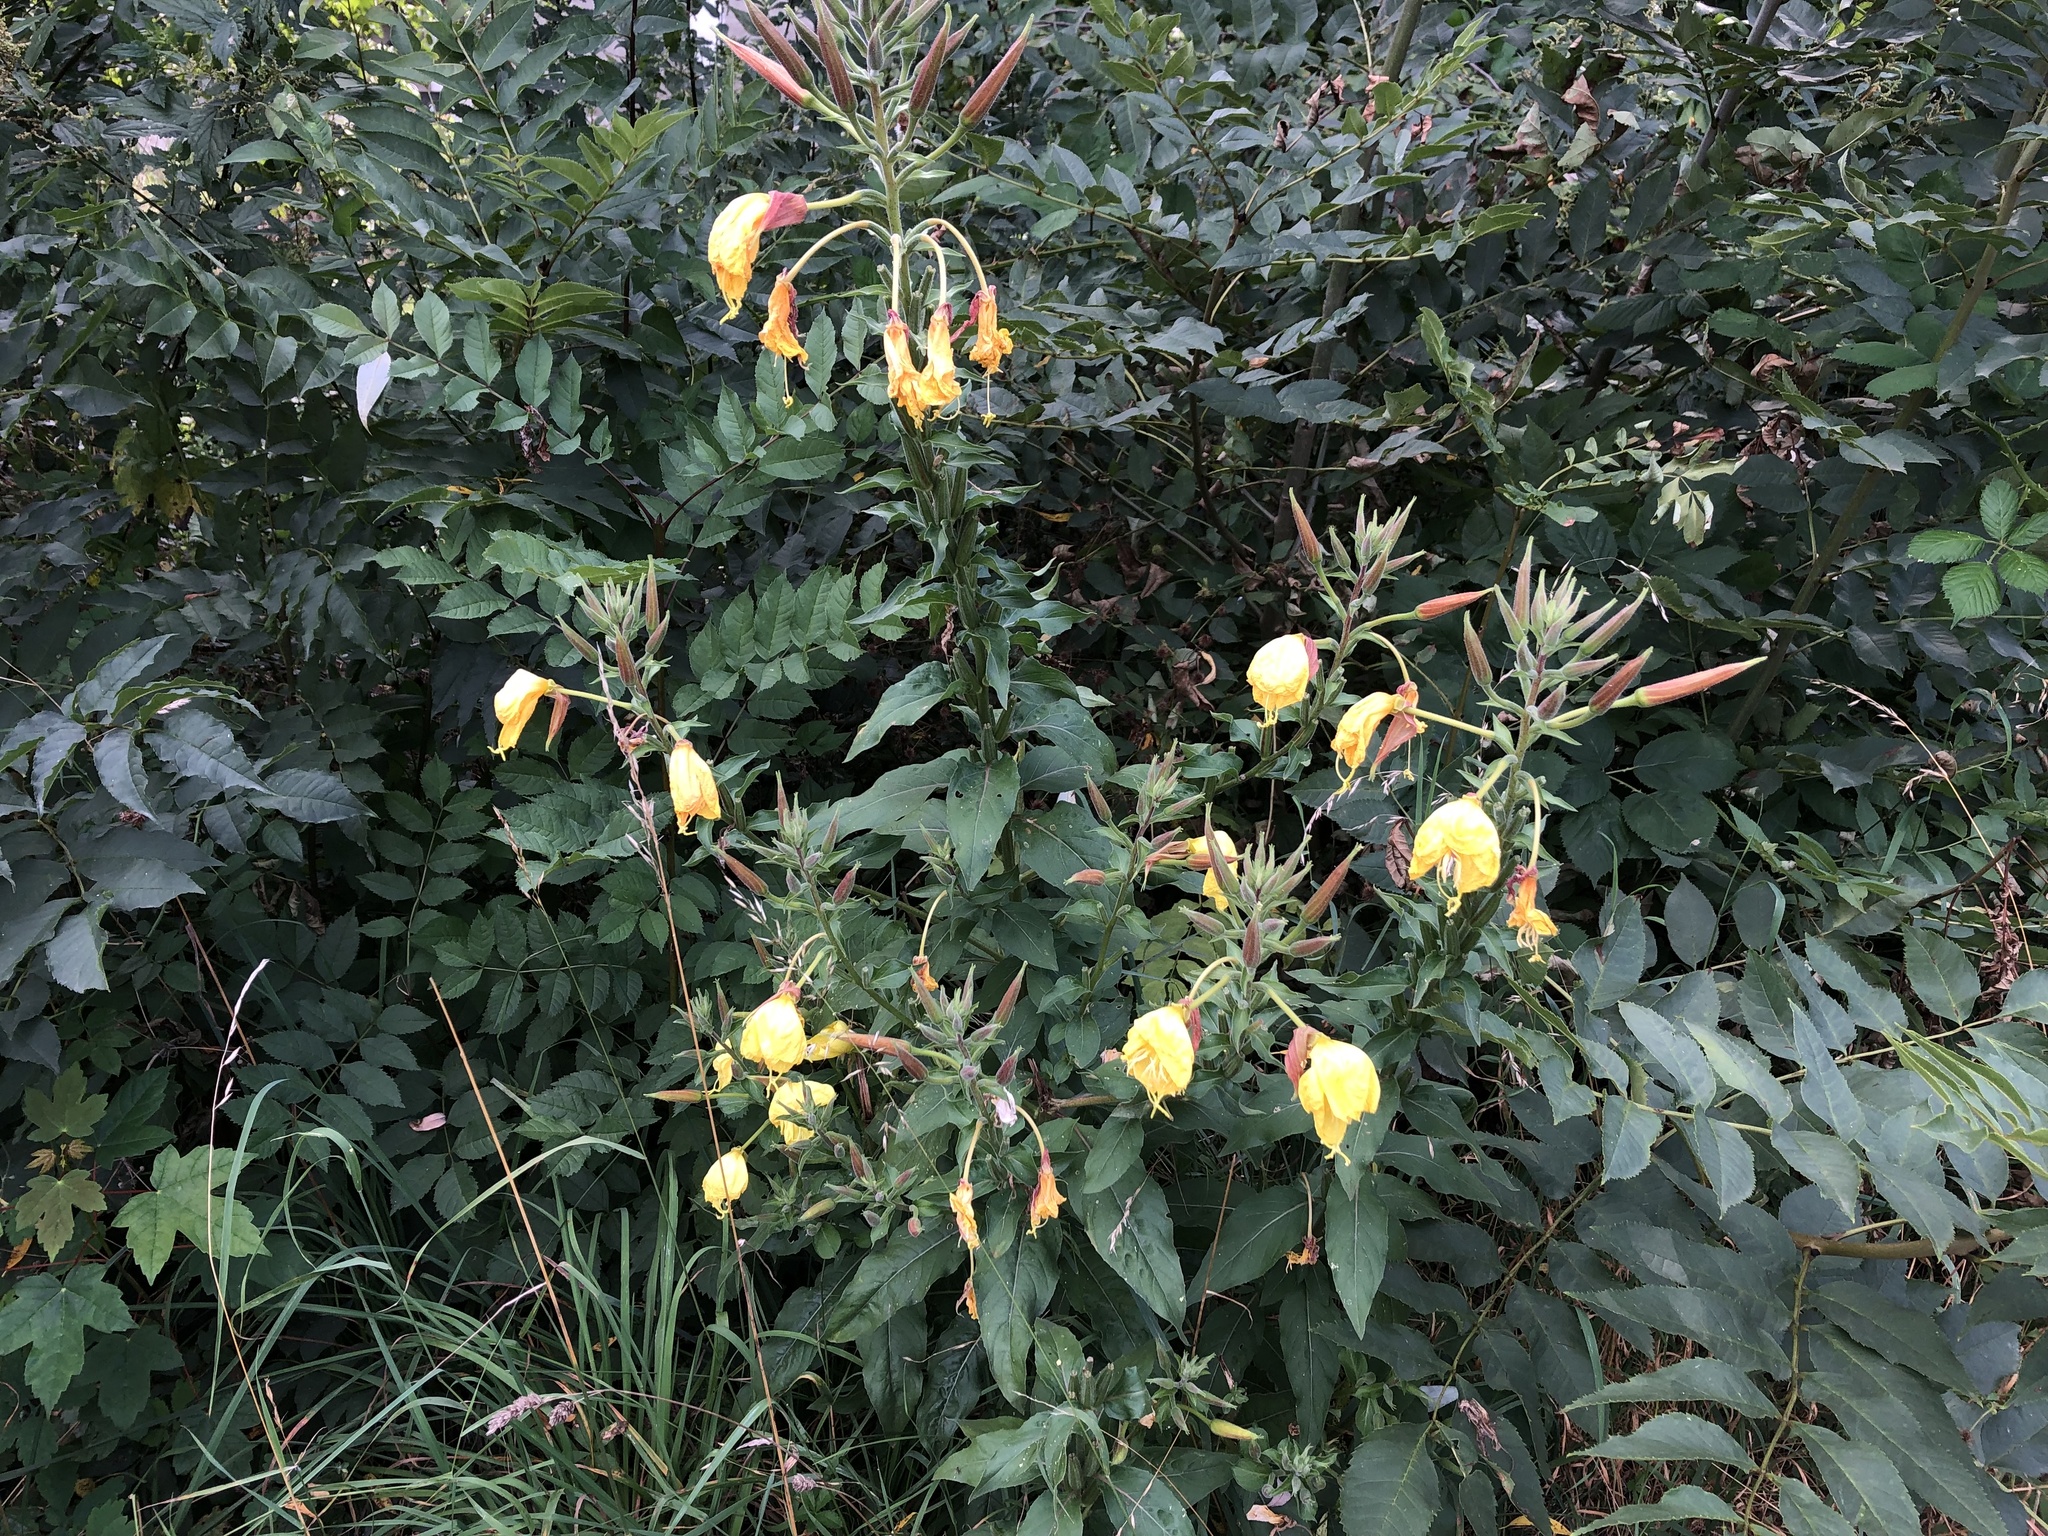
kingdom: Plantae
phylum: Tracheophyta
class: Magnoliopsida
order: Myrtales
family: Onagraceae
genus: Oenothera
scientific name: Oenothera glazioviana
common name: Large-flowered evening-primrose
